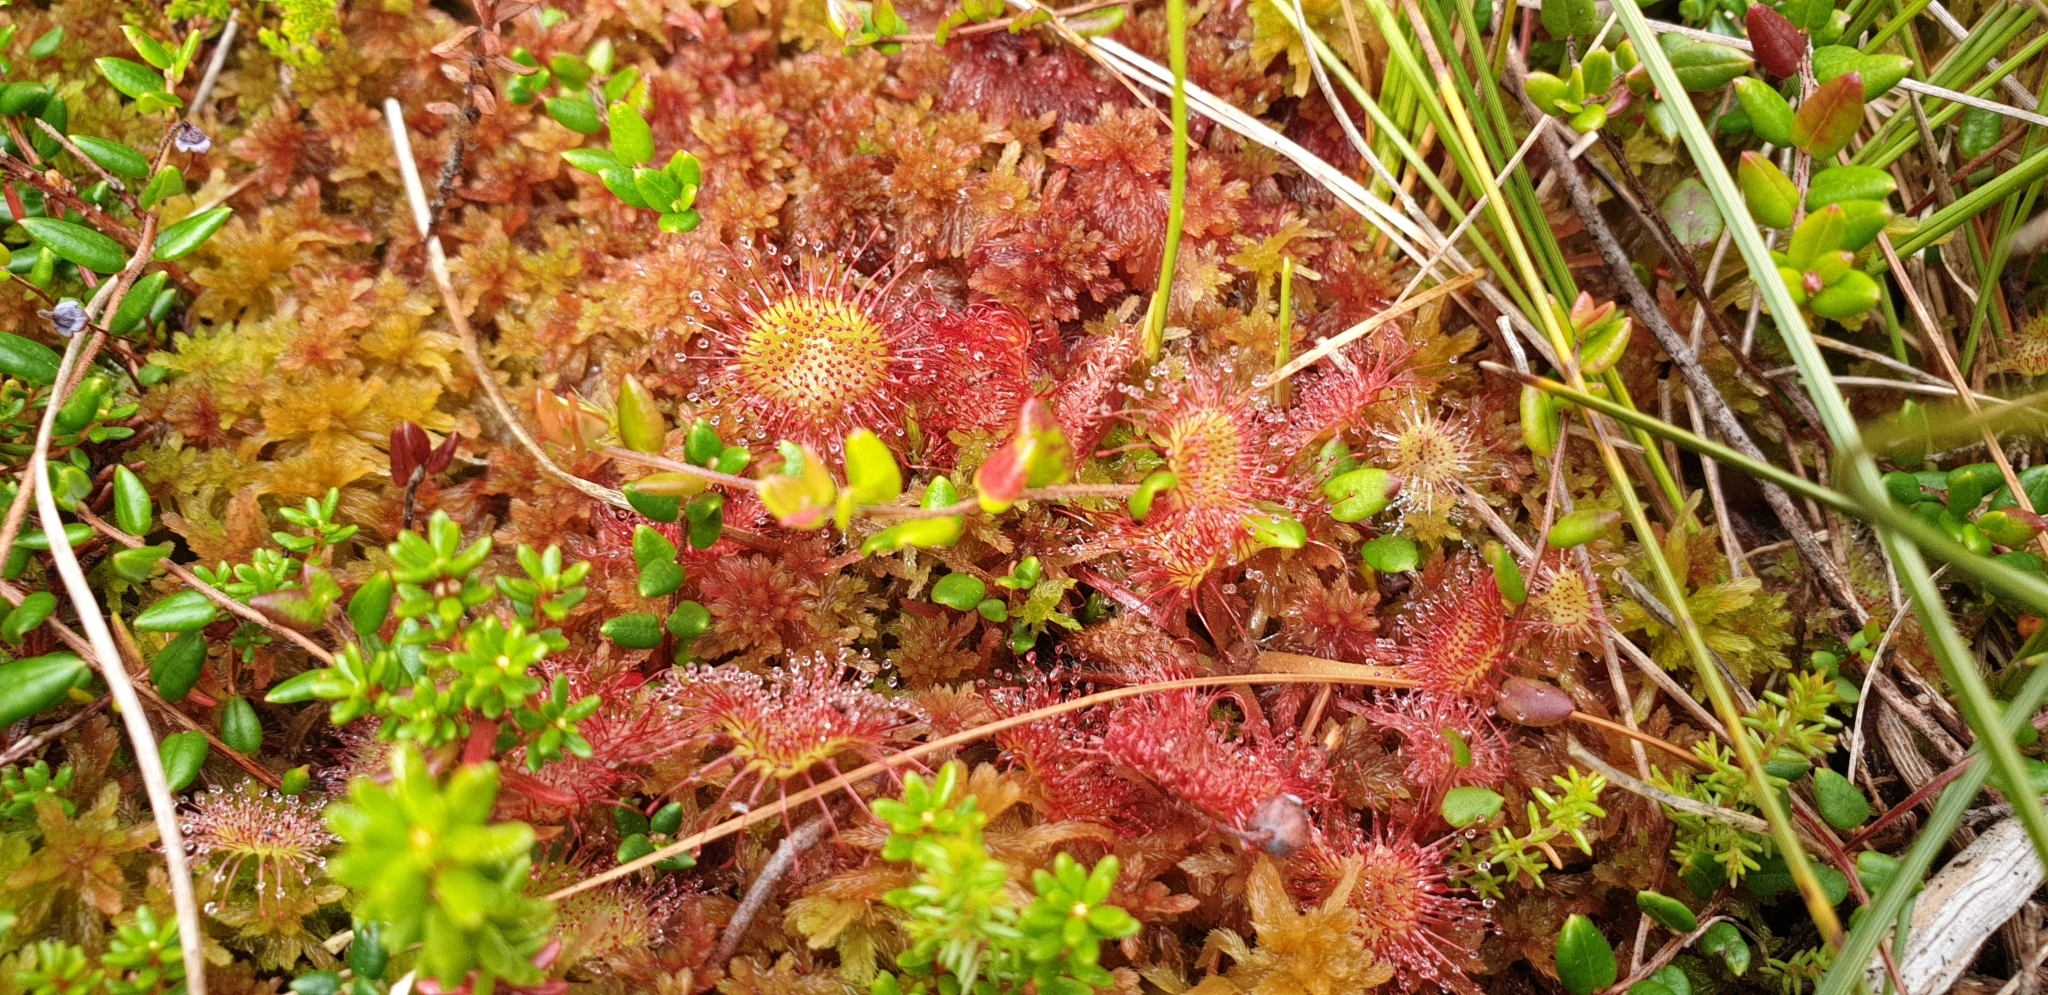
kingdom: Plantae
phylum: Tracheophyta
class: Magnoliopsida
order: Caryophyllales
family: Droseraceae
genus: Drosera
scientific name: Drosera rotundifolia
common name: Round-leaved sundew
